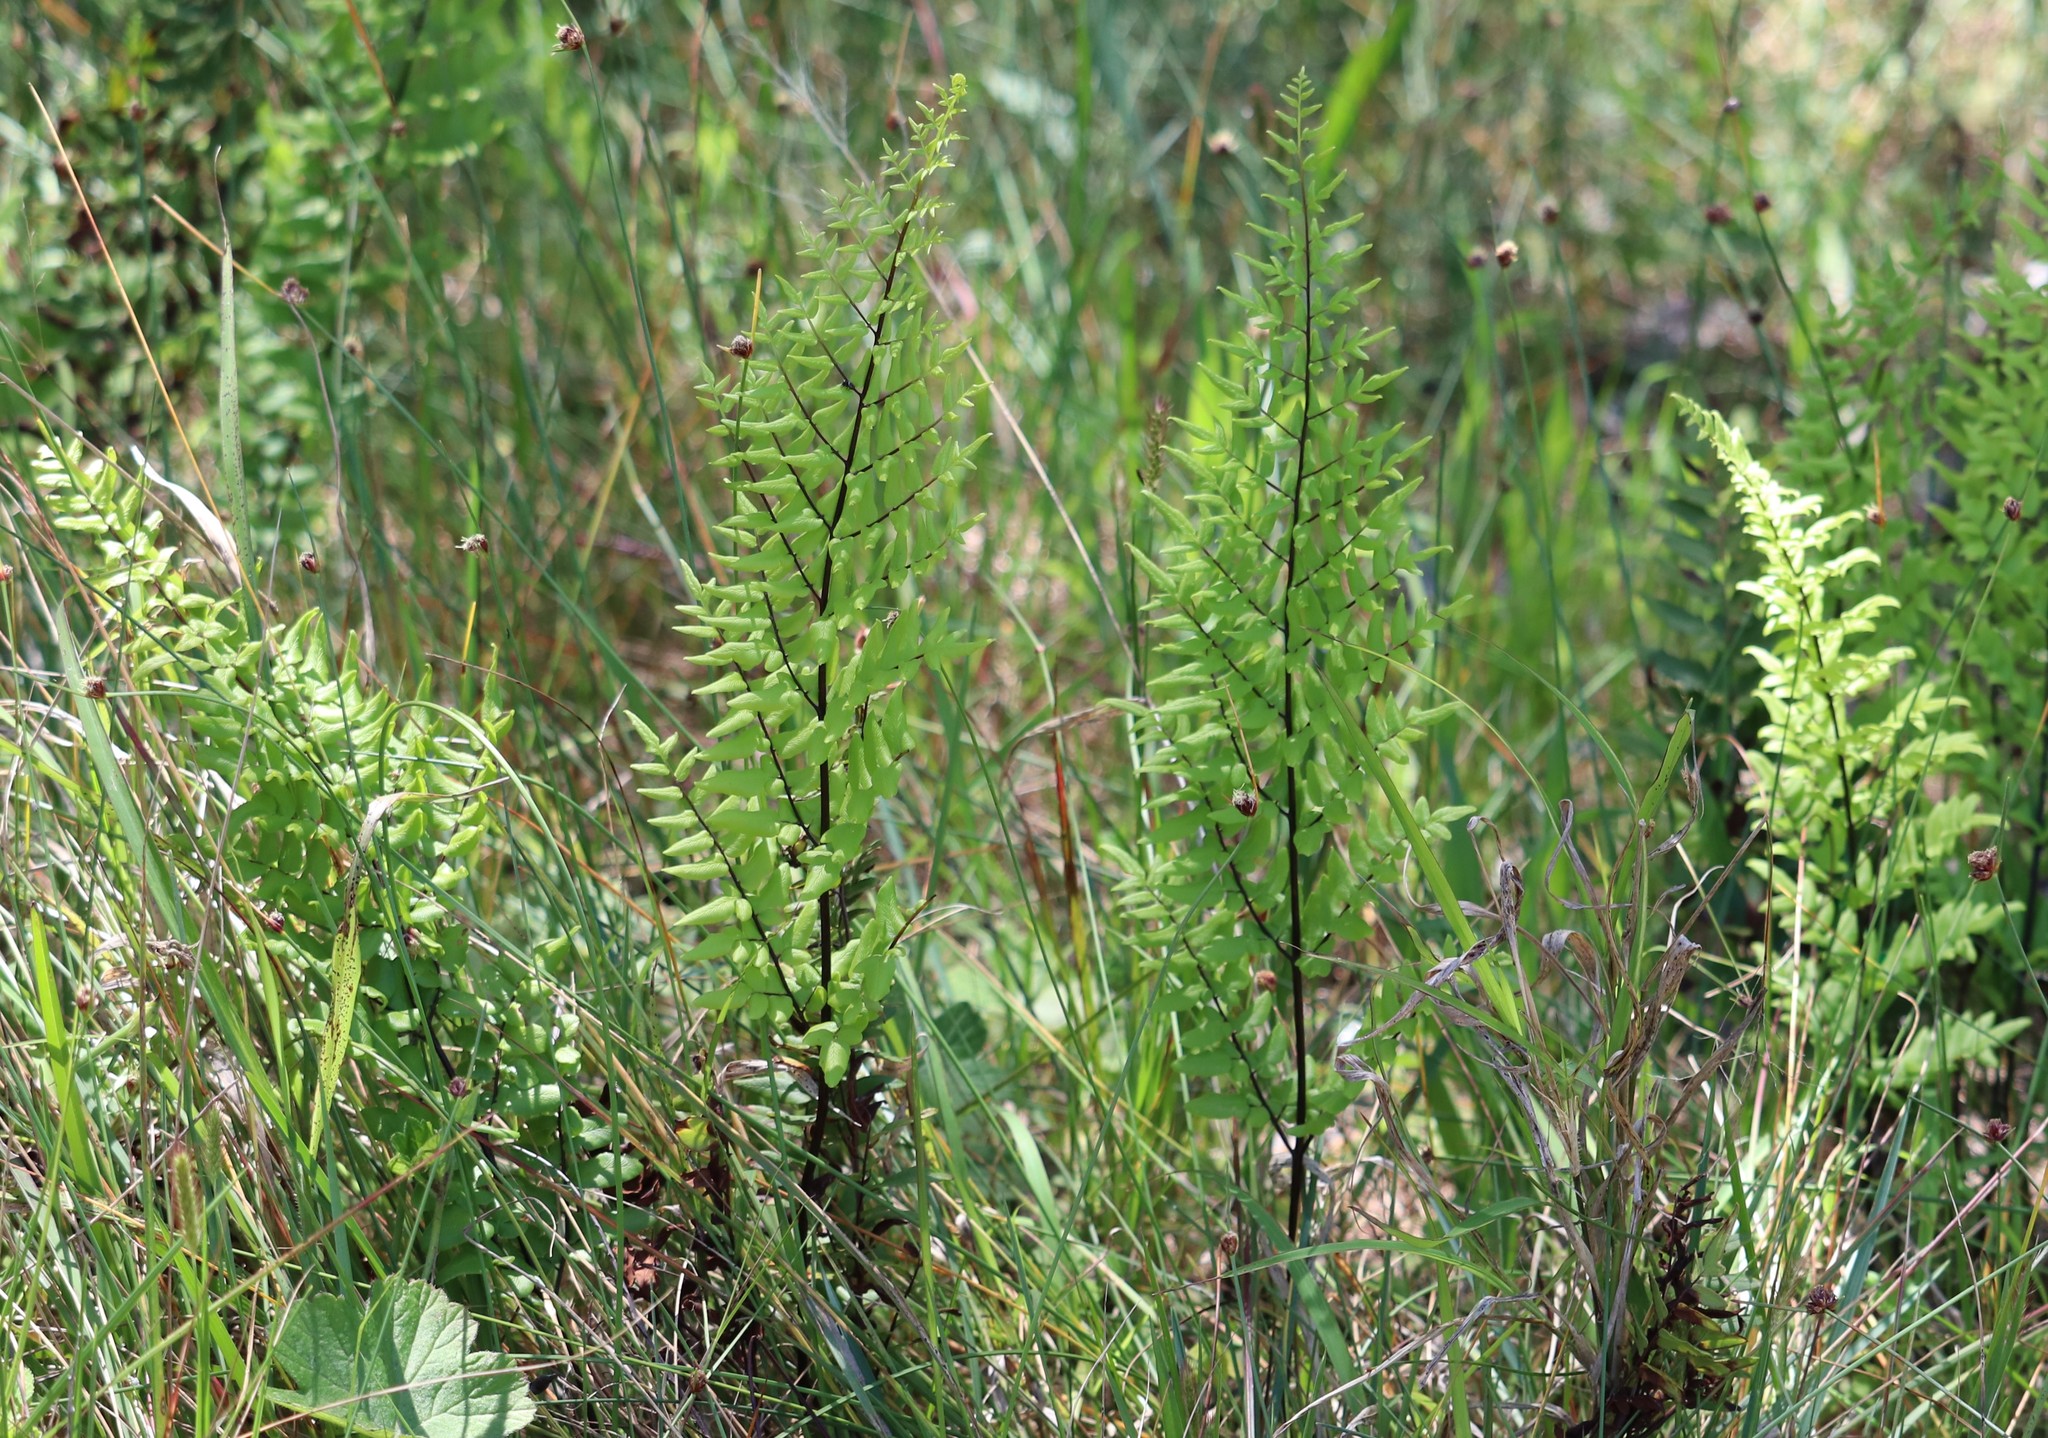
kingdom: Plantae
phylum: Tracheophyta
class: Polypodiopsida
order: Polypodiales
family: Pteridaceae
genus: Cheilanthes
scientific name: Cheilanthes viridis
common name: Green cliffbrake
